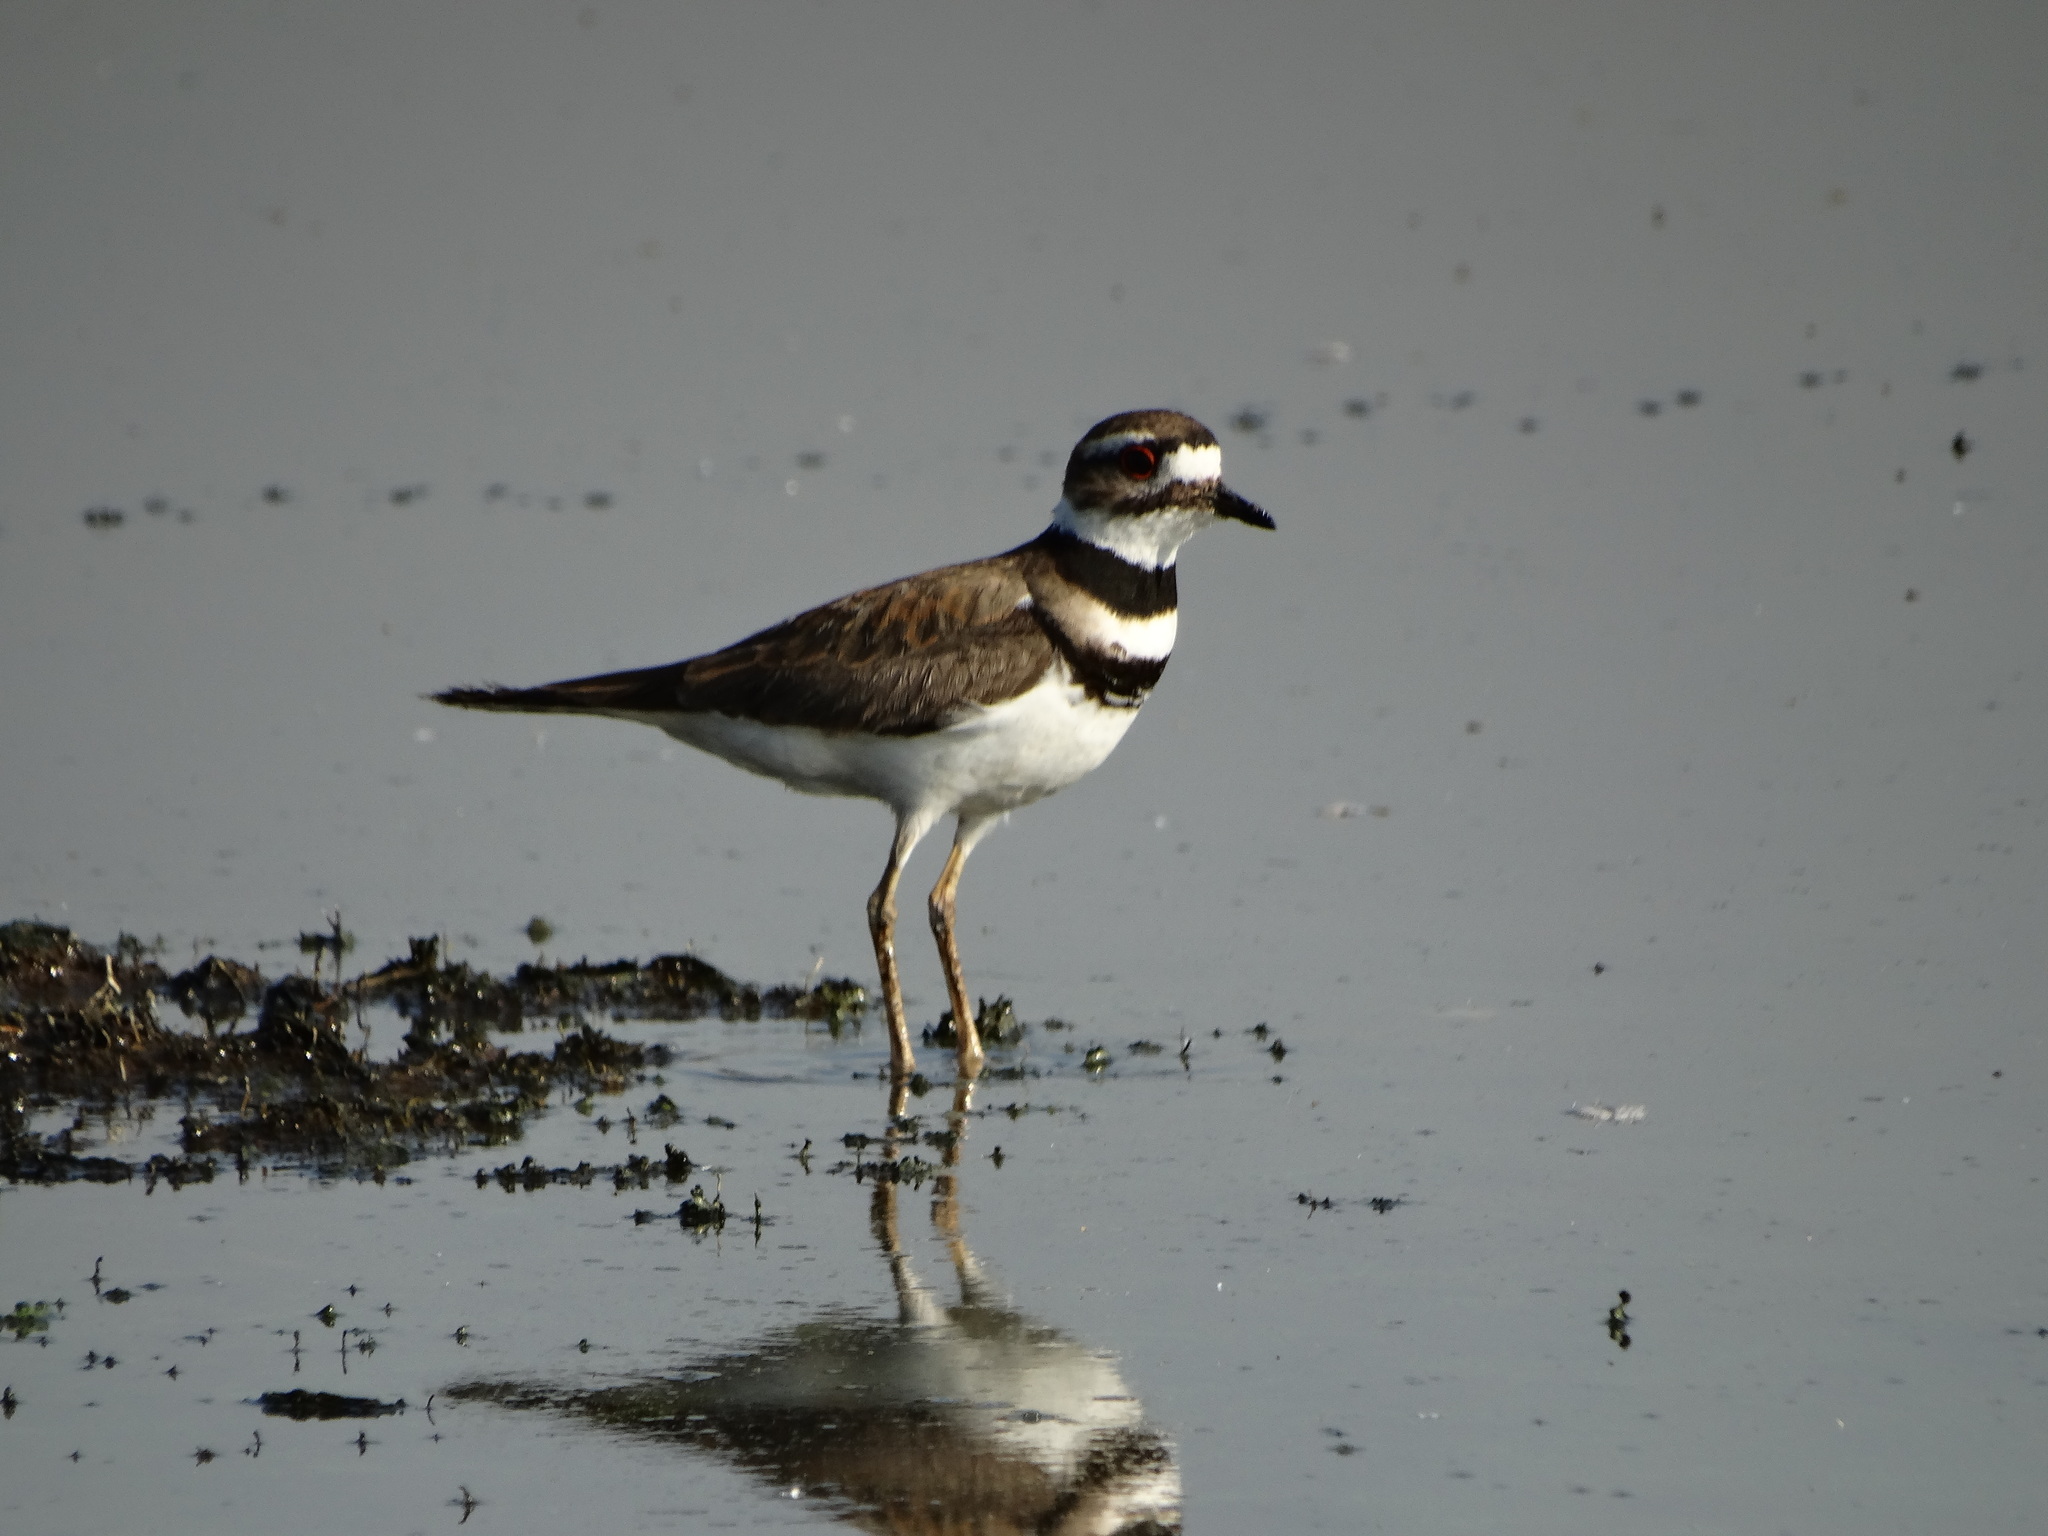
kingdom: Animalia
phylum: Chordata
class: Aves
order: Charadriiformes
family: Charadriidae
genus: Charadrius
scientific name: Charadrius vociferus
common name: Killdeer
